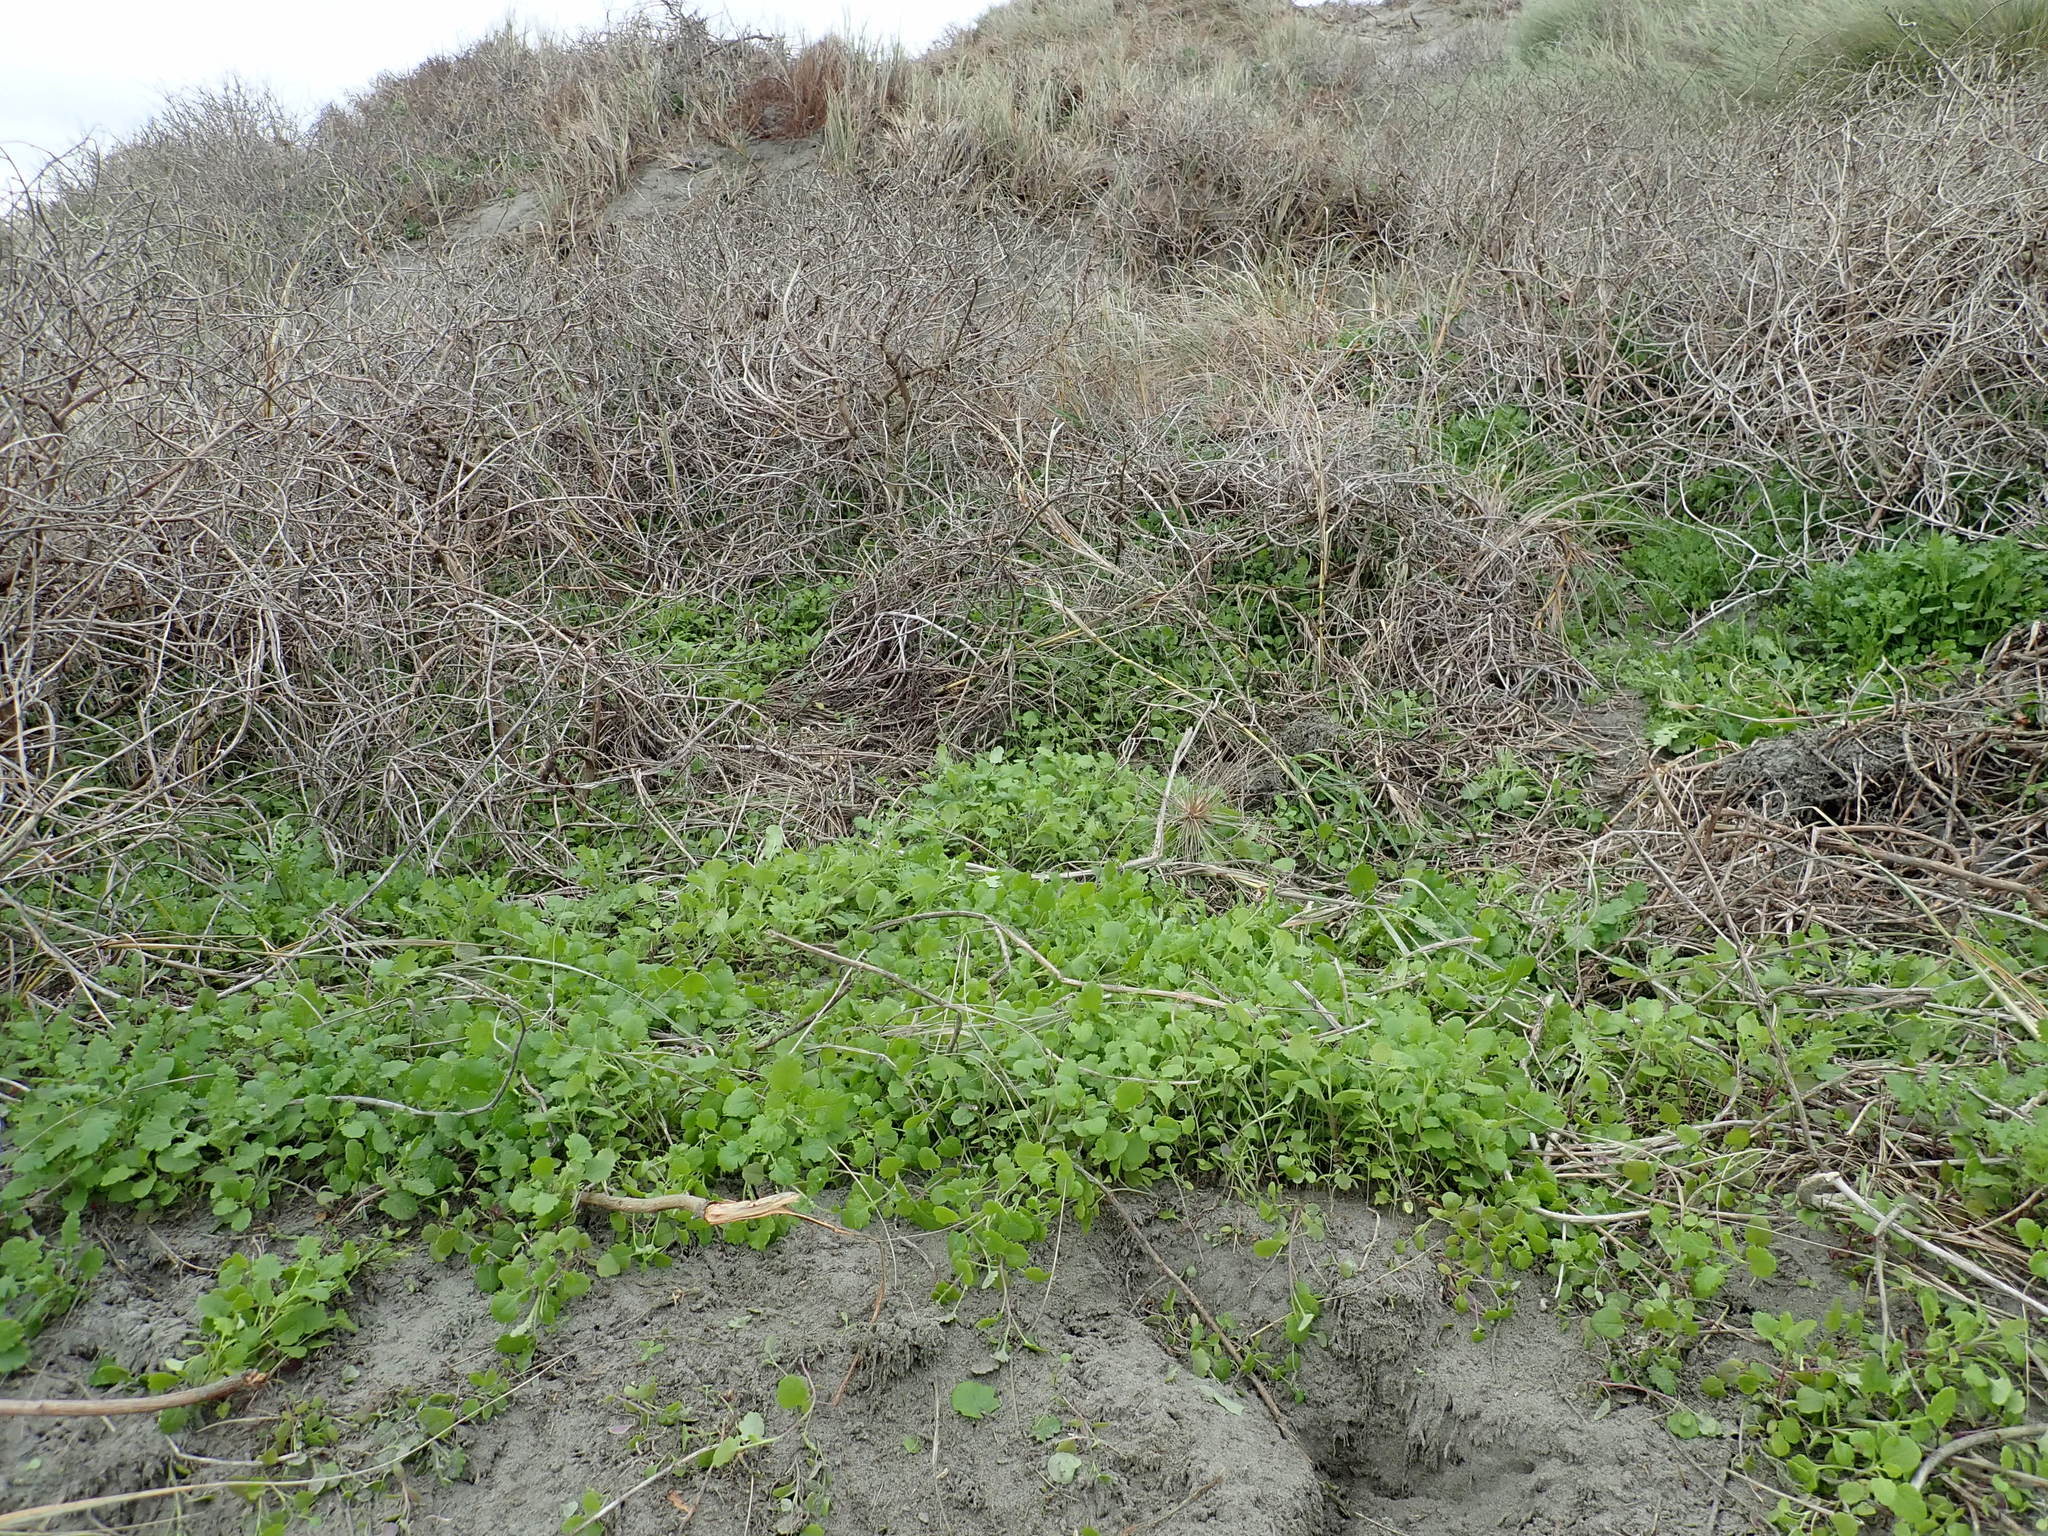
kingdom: Plantae
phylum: Tracheophyta
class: Magnoliopsida
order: Asterales
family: Asteraceae
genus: Senecio
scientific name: Senecio elegans
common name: Purple groundsel
